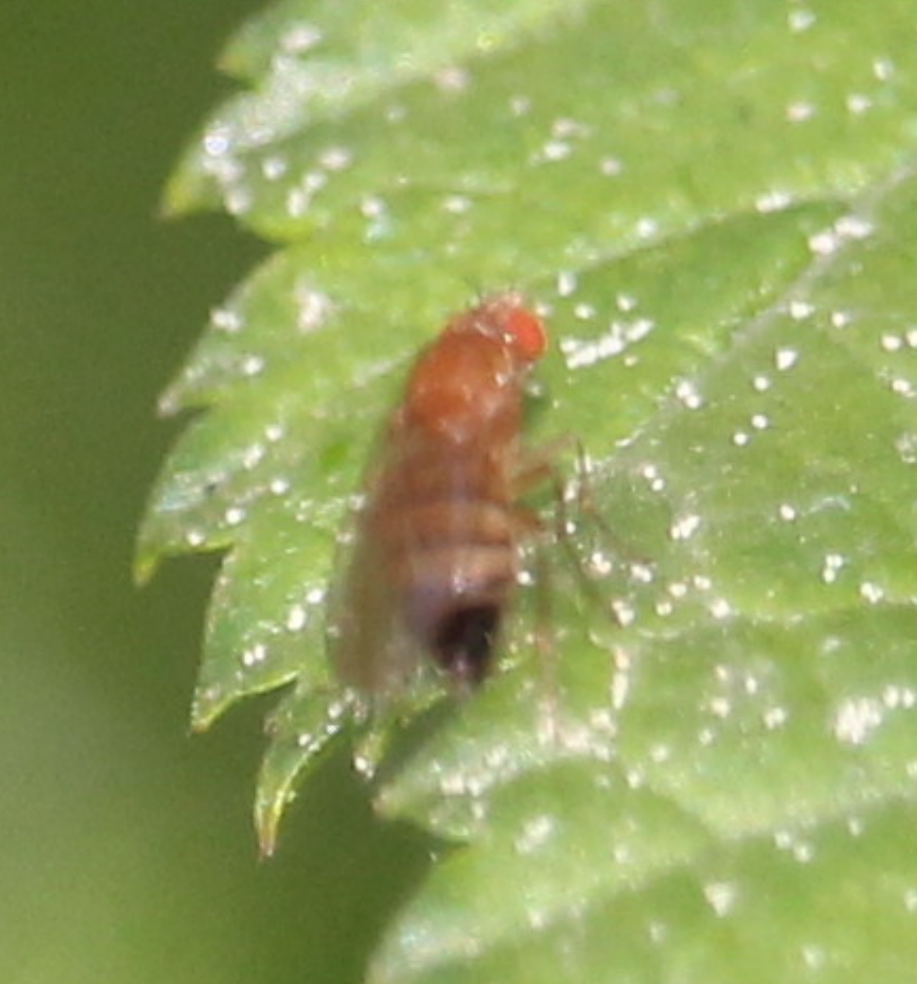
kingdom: Animalia
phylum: Arthropoda
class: Insecta
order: Diptera
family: Drosophilidae
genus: Lordiphosa
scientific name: Lordiphosa fenestrarum
